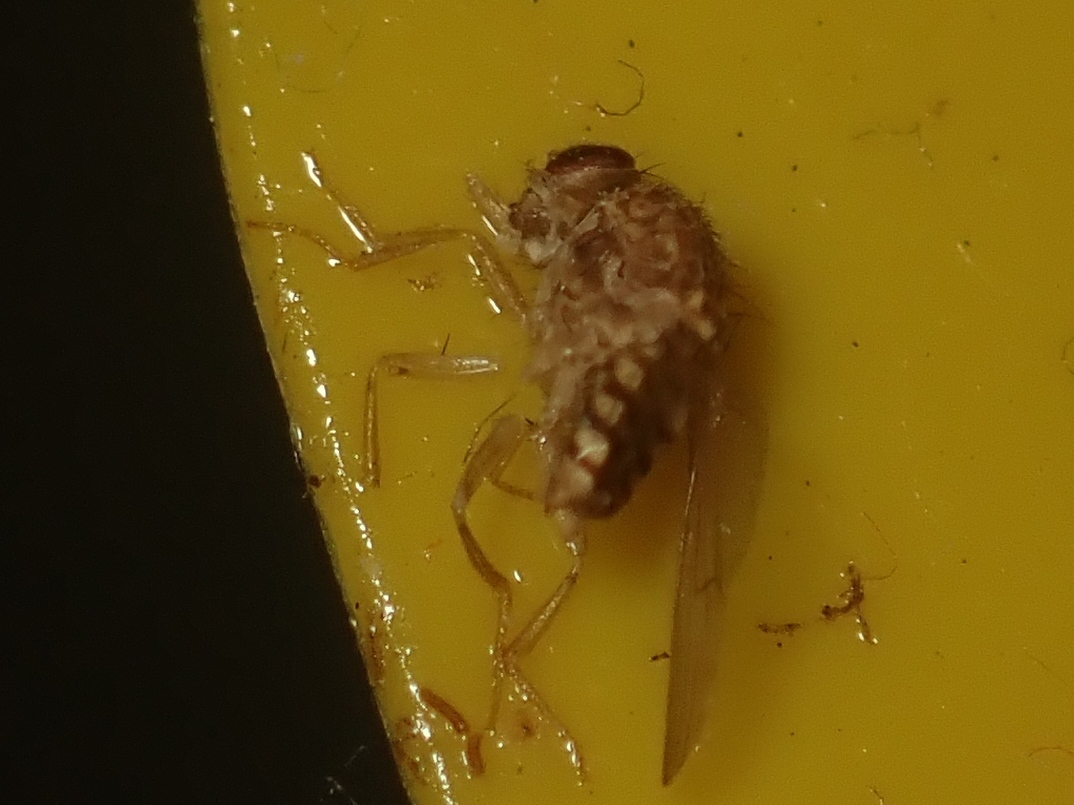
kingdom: Animalia
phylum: Arthropoda
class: Insecta
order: Diptera
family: Drosophilidae
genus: Drosophila
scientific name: Drosophila repleta
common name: Pomace fly
